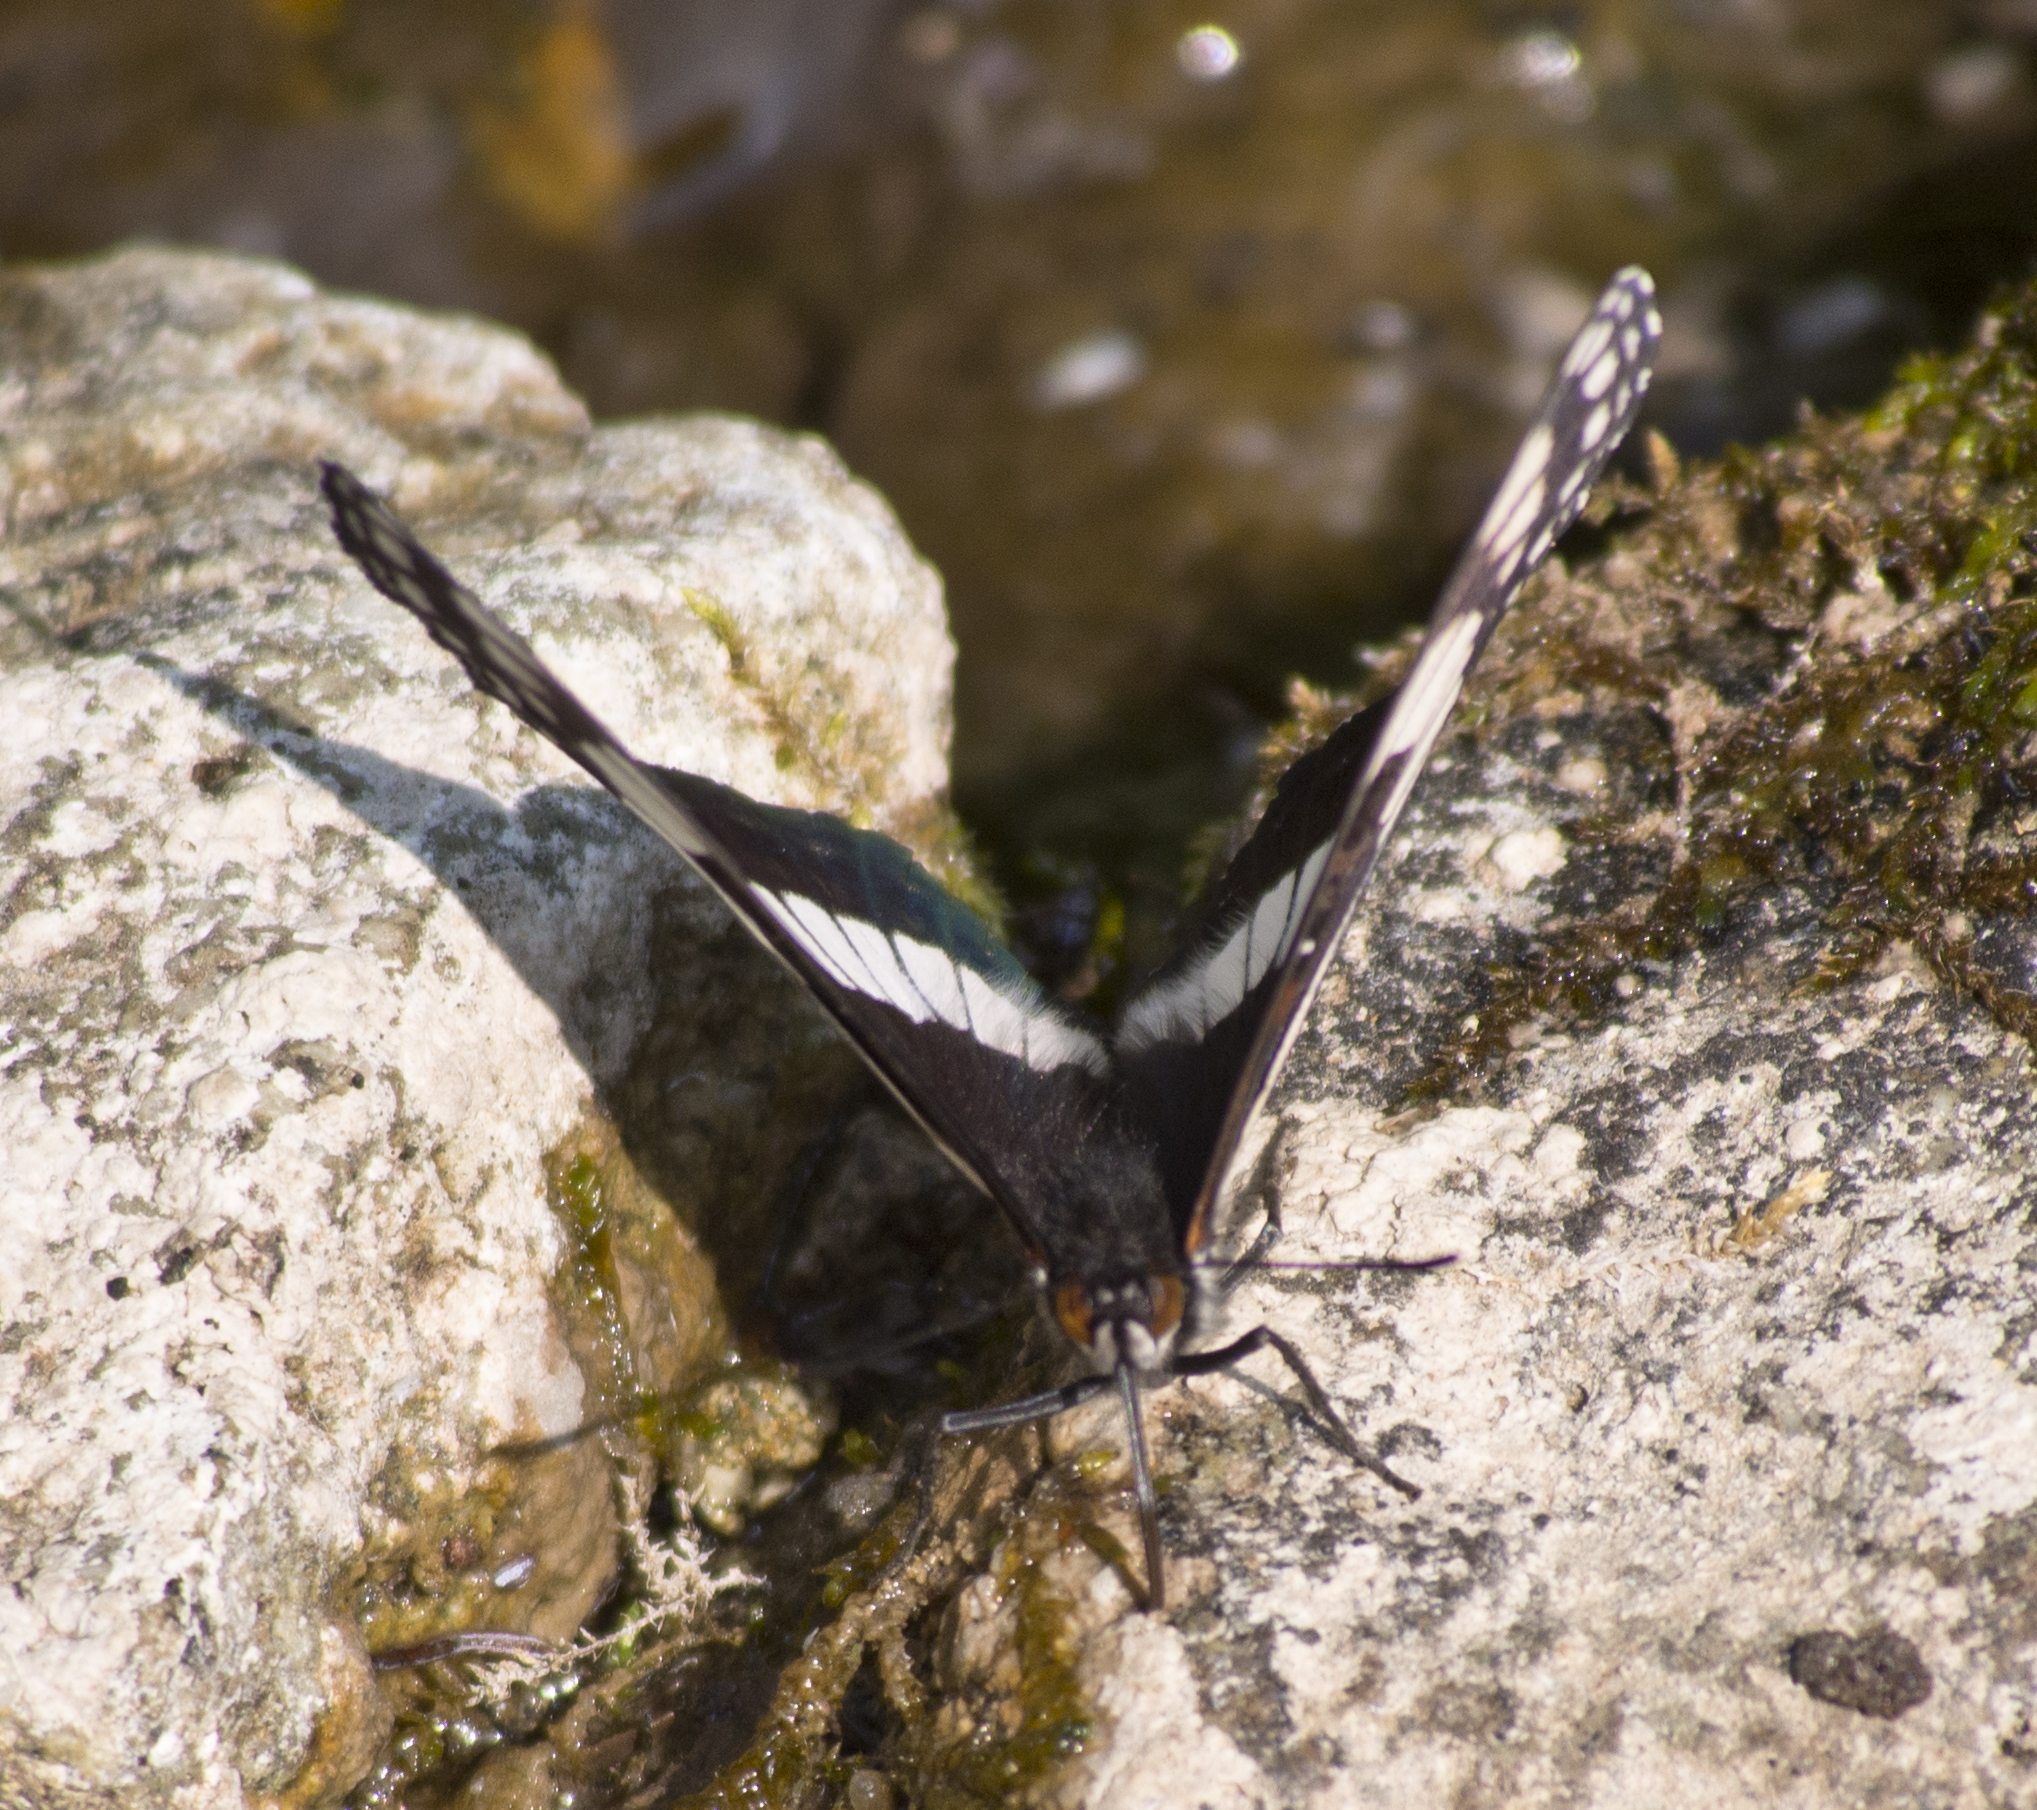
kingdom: Animalia
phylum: Arthropoda
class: Insecta
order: Lepidoptera
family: Nymphalidae
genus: Limenitis
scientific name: Limenitis weidemeyerii
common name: Weidemeyer's admiral
